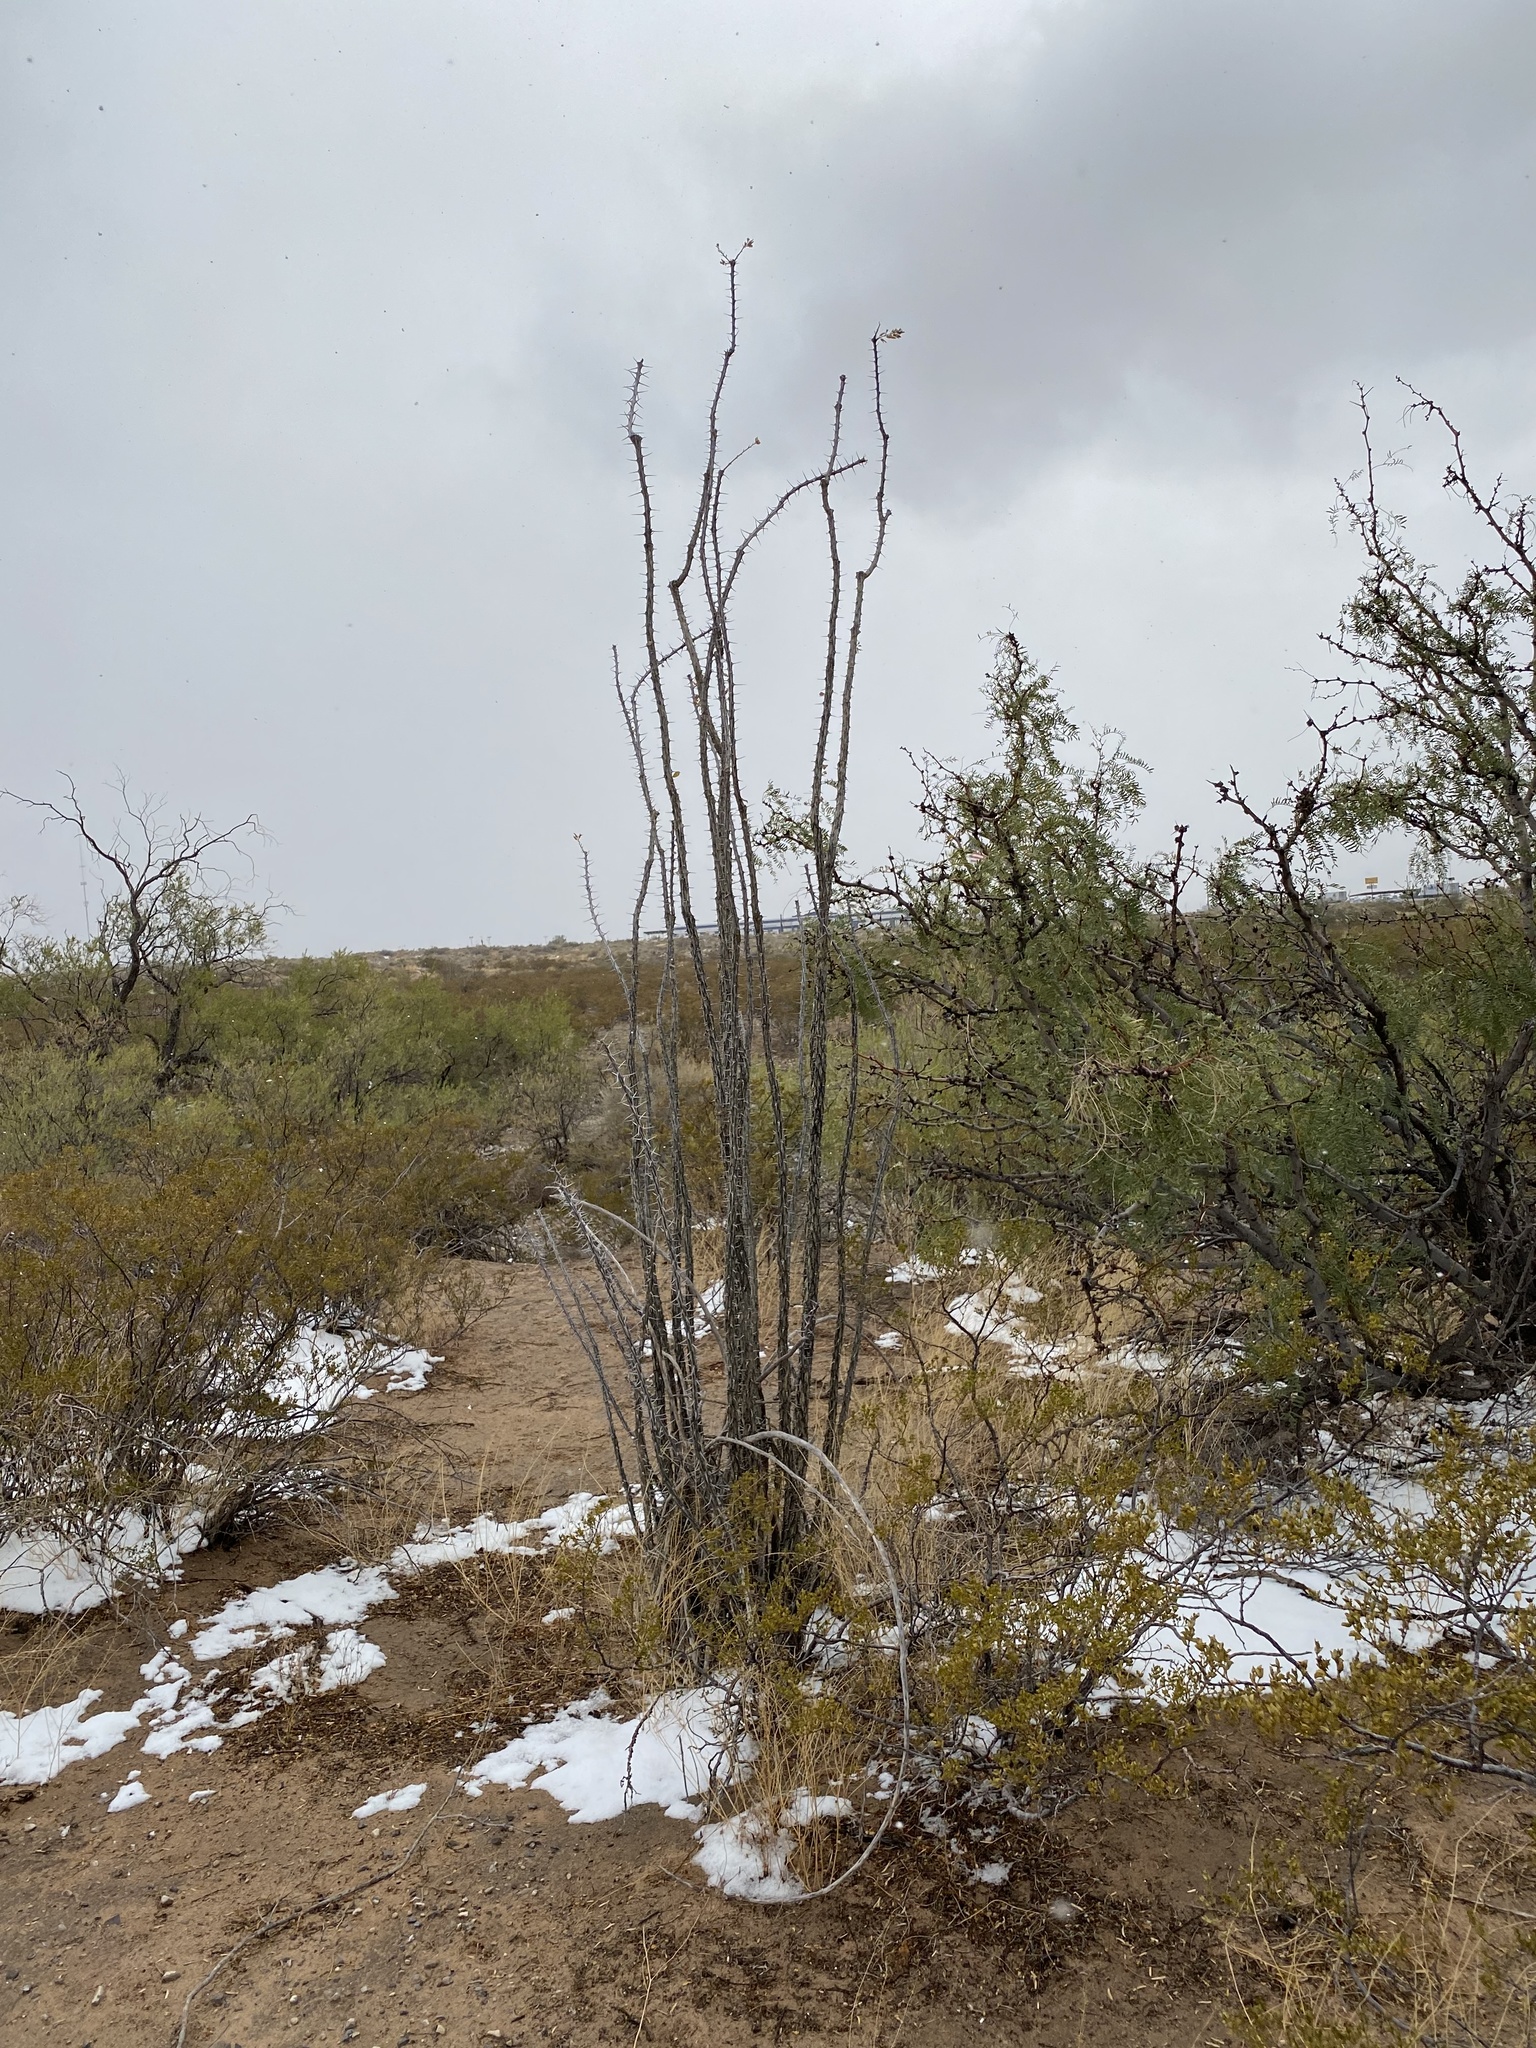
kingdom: Plantae
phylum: Tracheophyta
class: Magnoliopsida
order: Ericales
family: Fouquieriaceae
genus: Fouquieria
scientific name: Fouquieria splendens
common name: Vine-cactus
